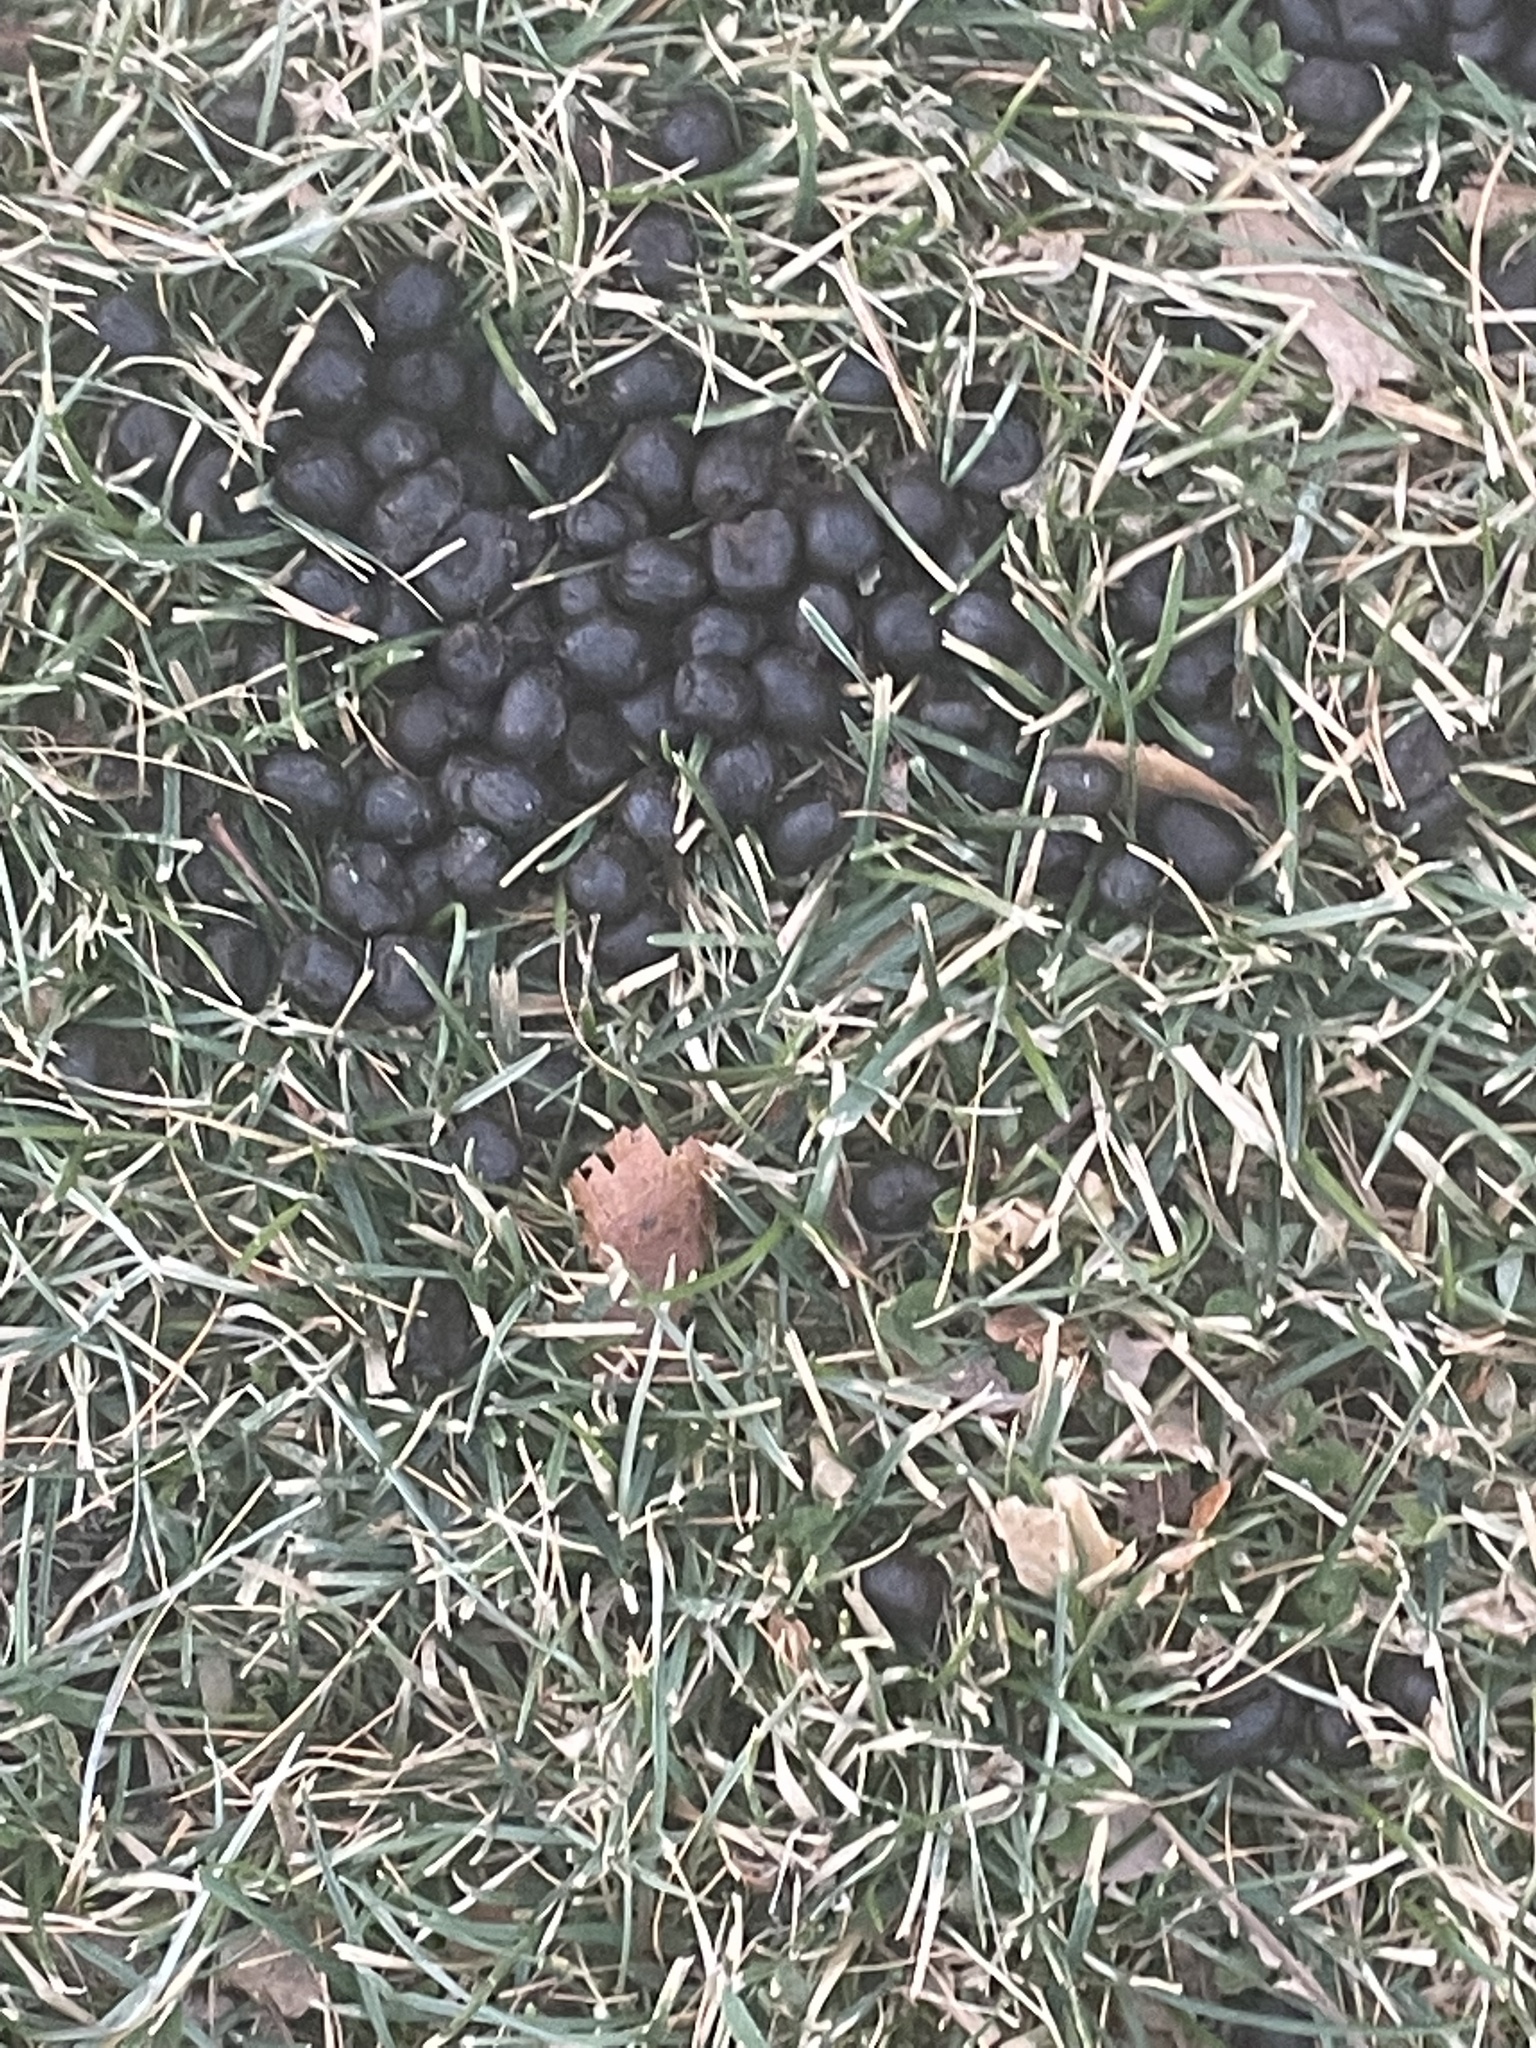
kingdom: Animalia
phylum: Chordata
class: Mammalia
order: Artiodactyla
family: Cervidae
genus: Odocoileus
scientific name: Odocoileus virginianus
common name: White-tailed deer
